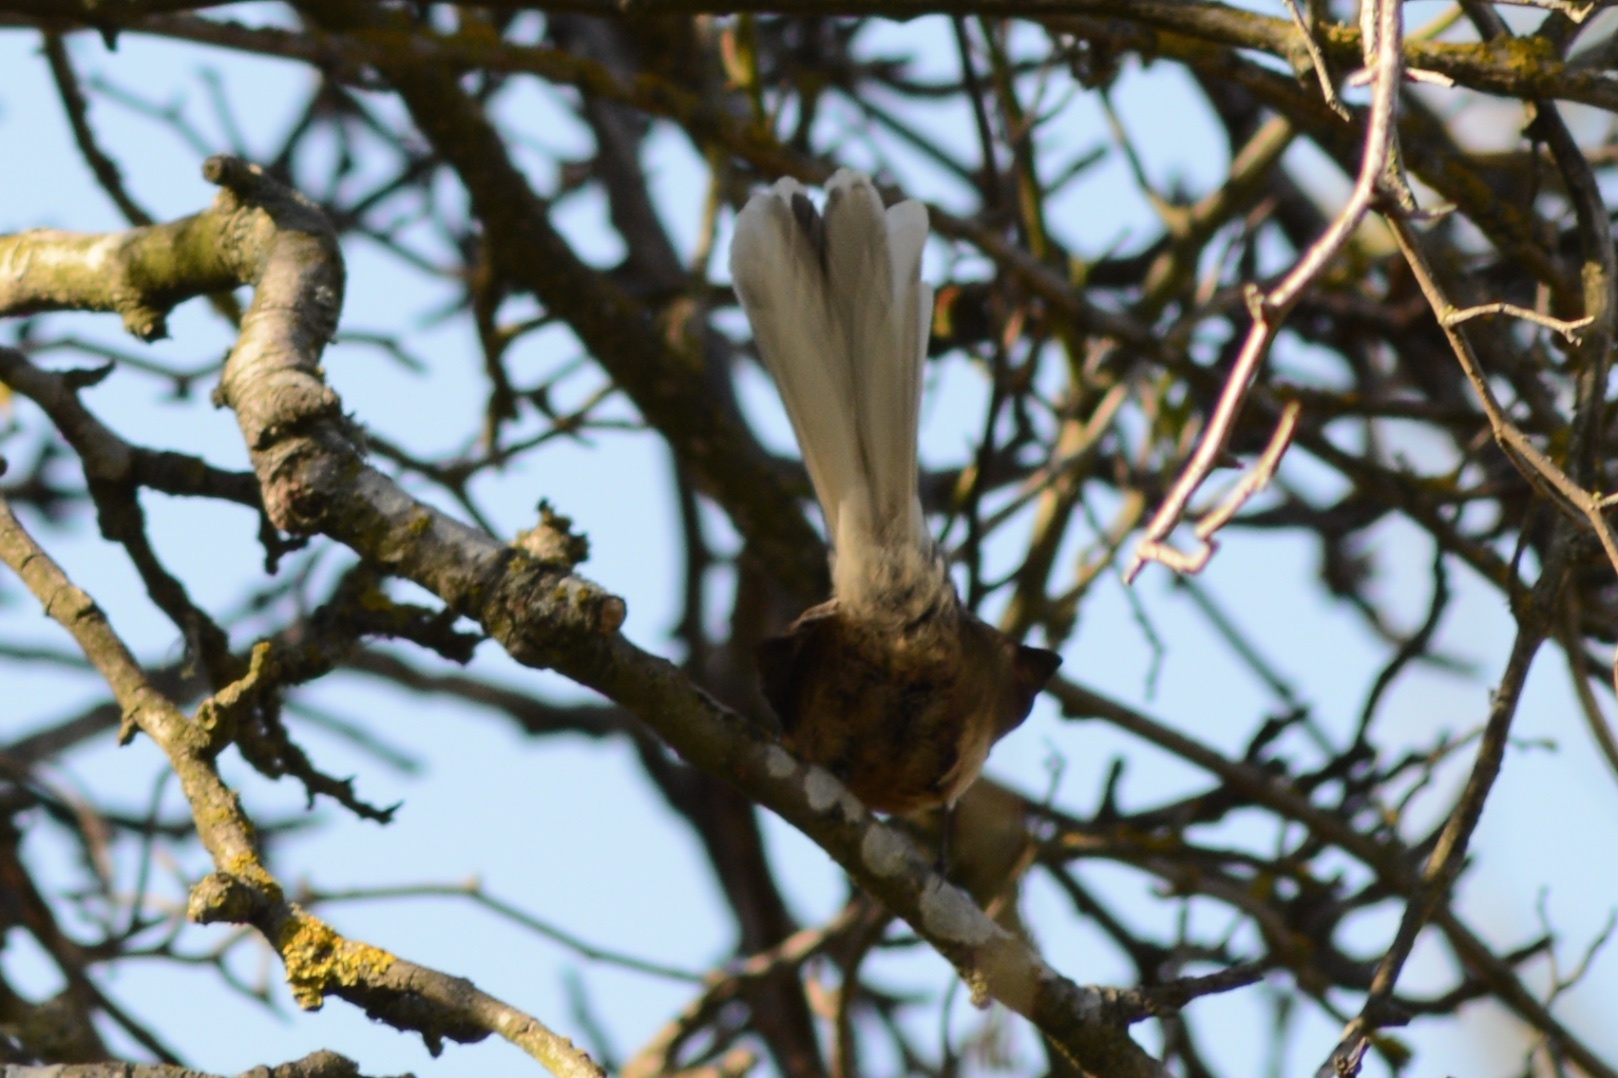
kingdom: Animalia
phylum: Chordata
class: Aves
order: Passeriformes
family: Rhipiduridae
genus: Rhipidura
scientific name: Rhipidura fuliginosa
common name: New zealand fantail
